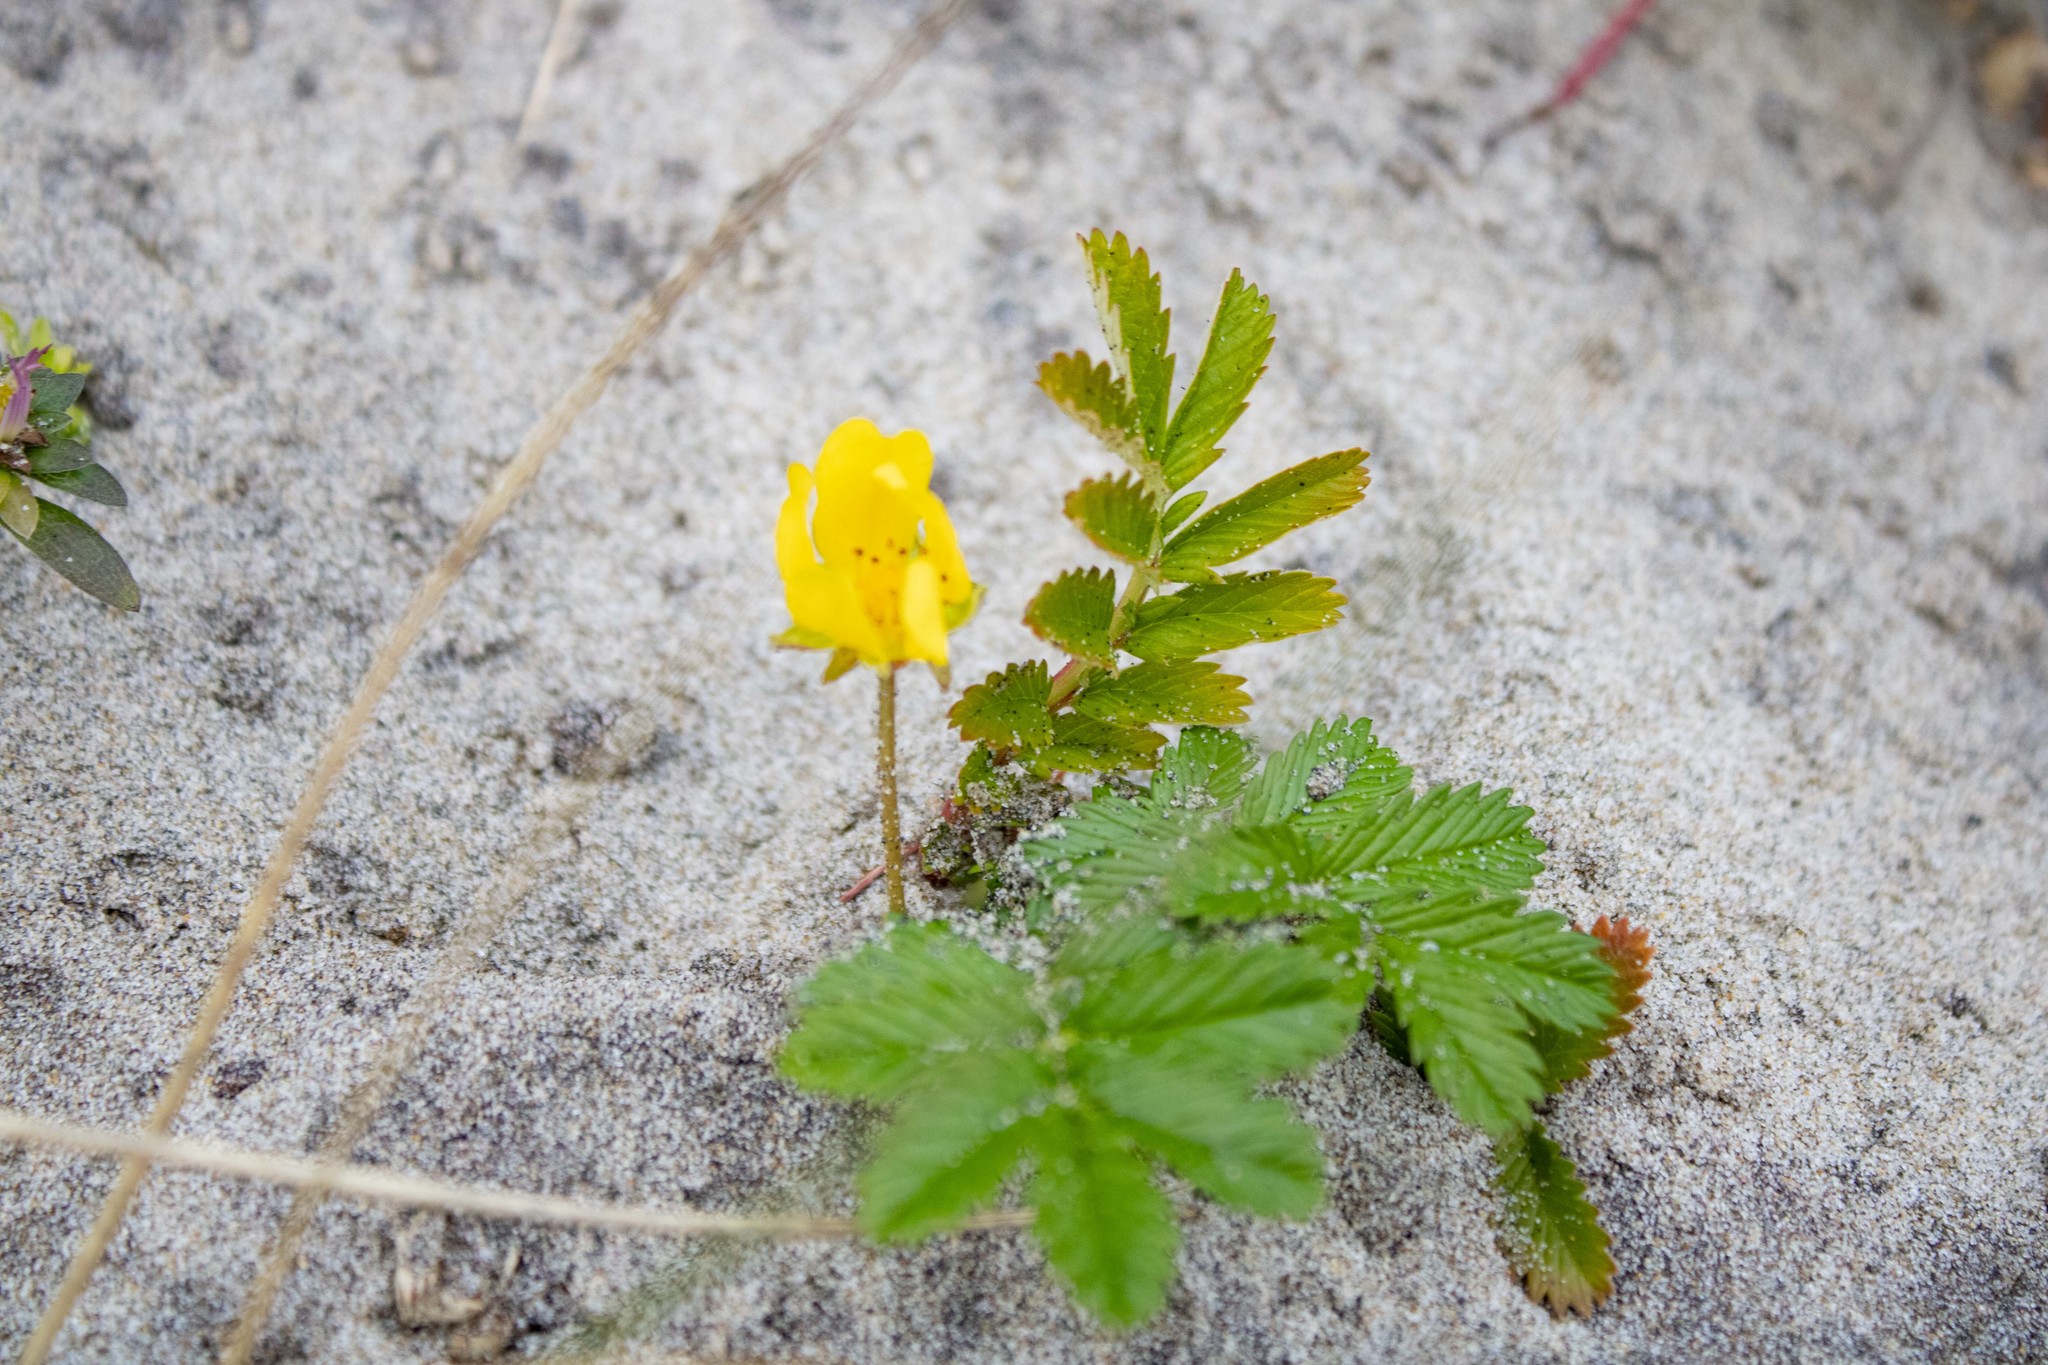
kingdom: Plantae
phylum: Tracheophyta
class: Magnoliopsida
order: Rosales
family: Rosaceae
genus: Argentina
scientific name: Argentina anserina
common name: Common silverweed
